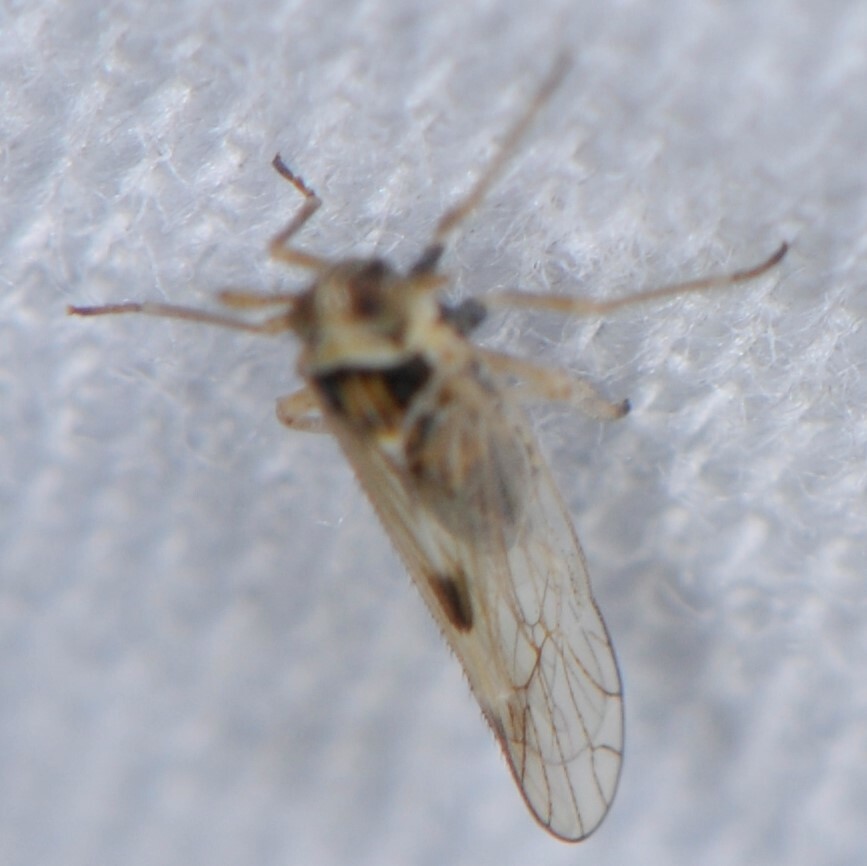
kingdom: Animalia
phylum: Arthropoda
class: Insecta
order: Hemiptera
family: Delphacidae
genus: Chionomus
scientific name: Chionomus
